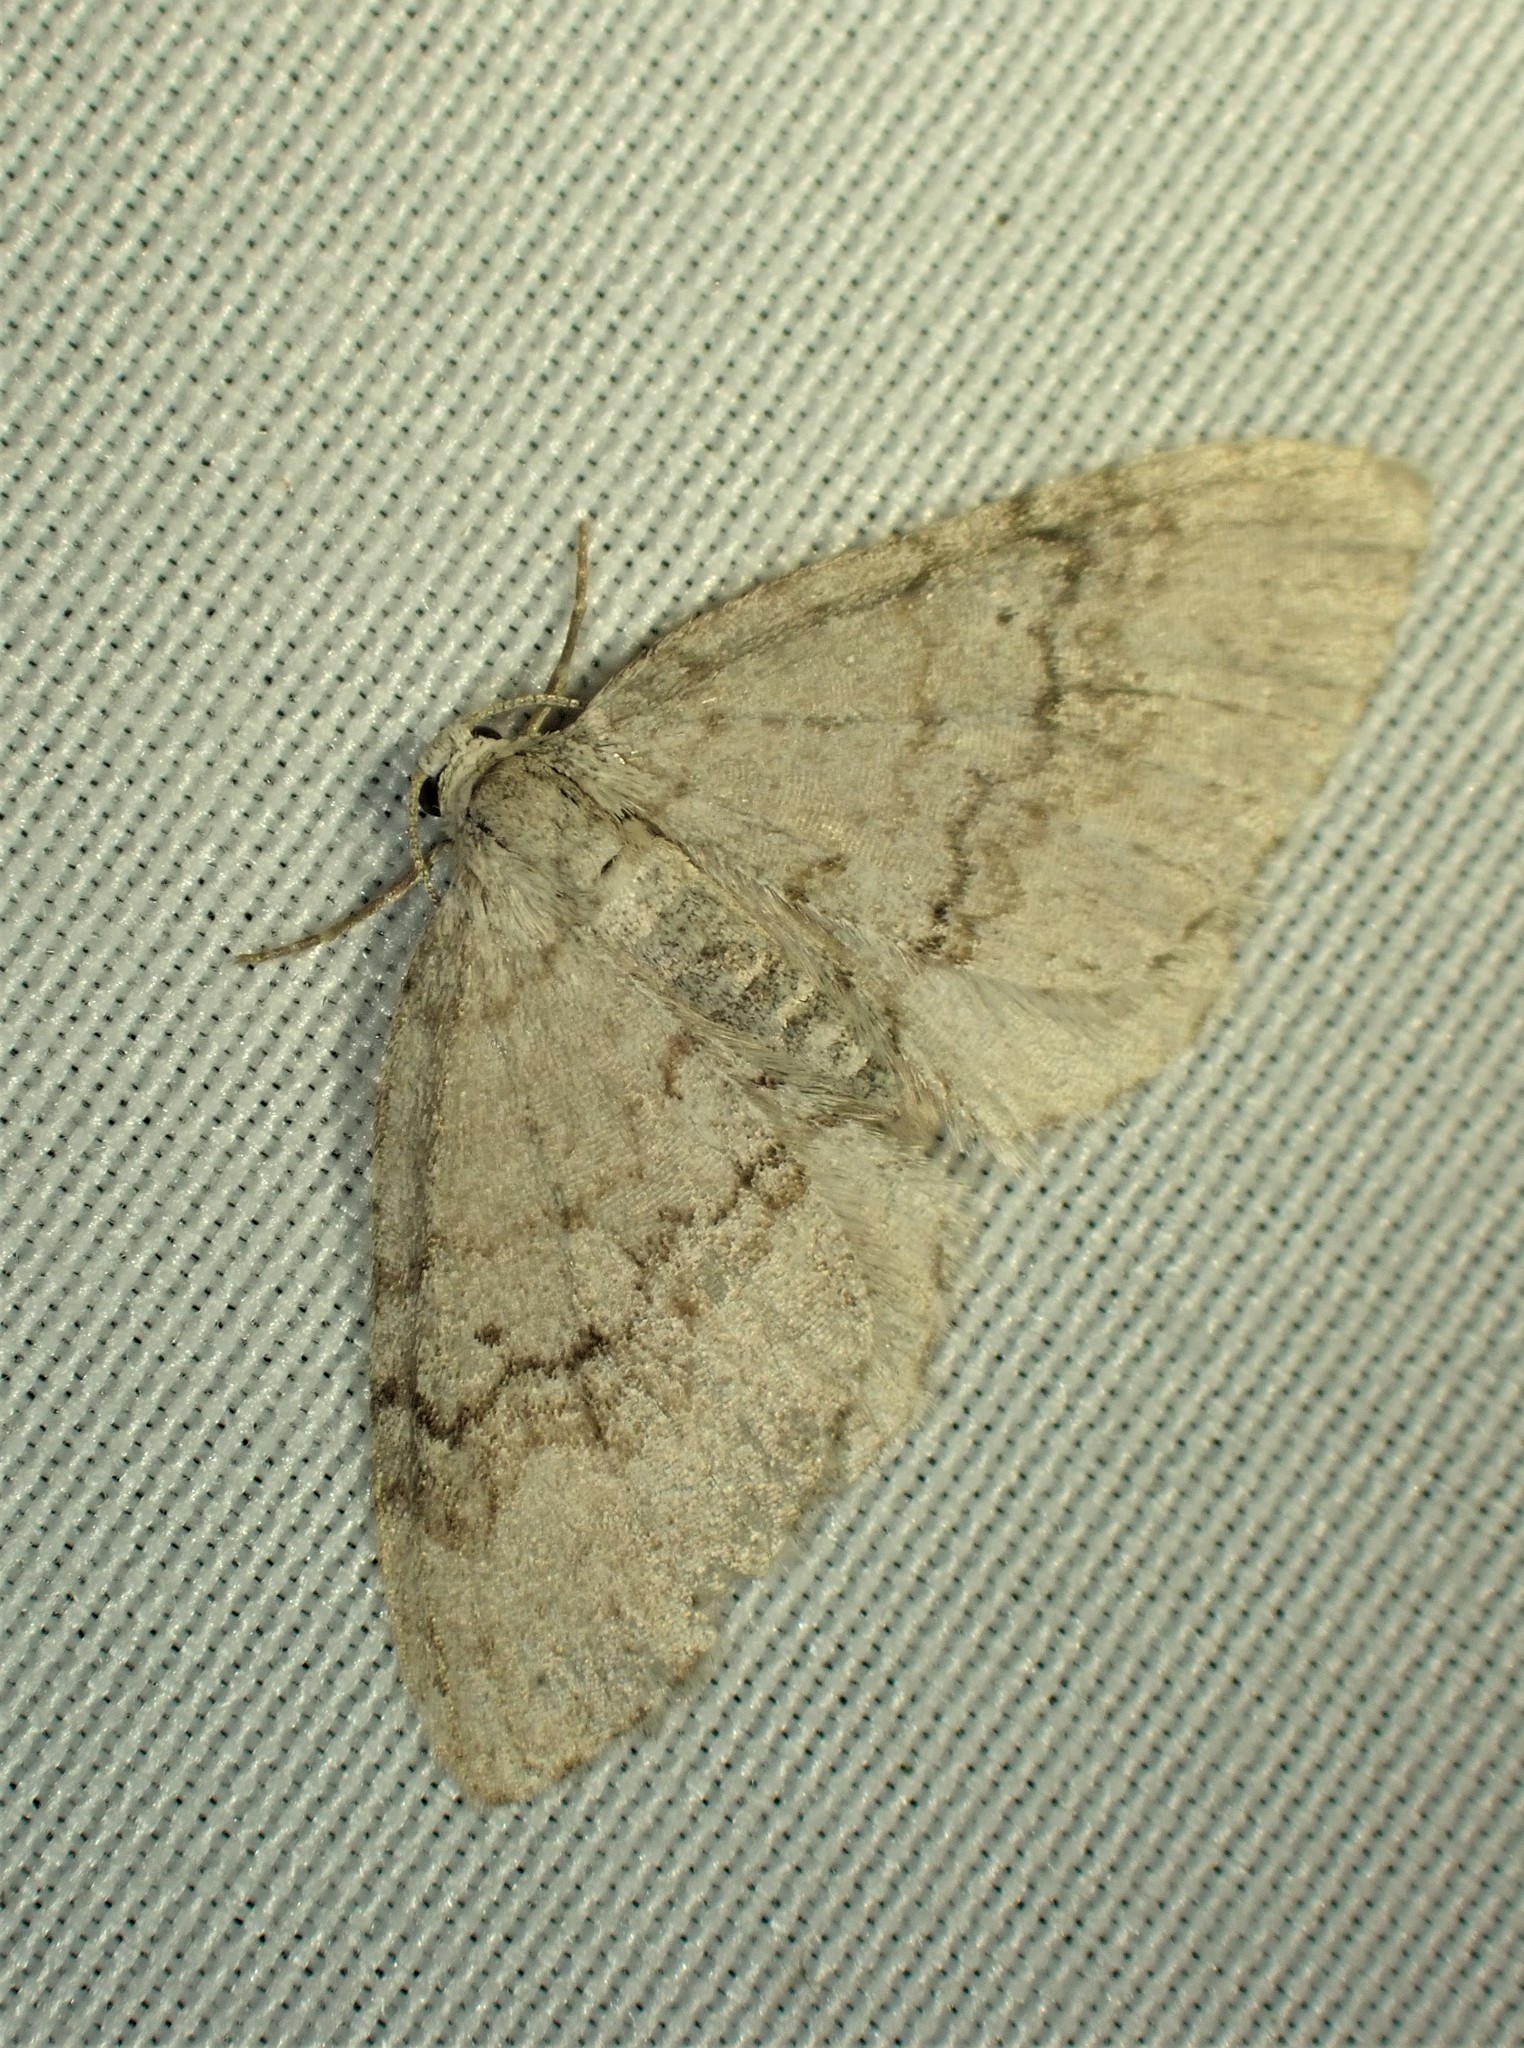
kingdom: Animalia
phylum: Arthropoda
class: Insecta
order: Lepidoptera
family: Geometridae
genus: Venusia
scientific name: Venusia comptaria
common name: Brown-shaded carpet
